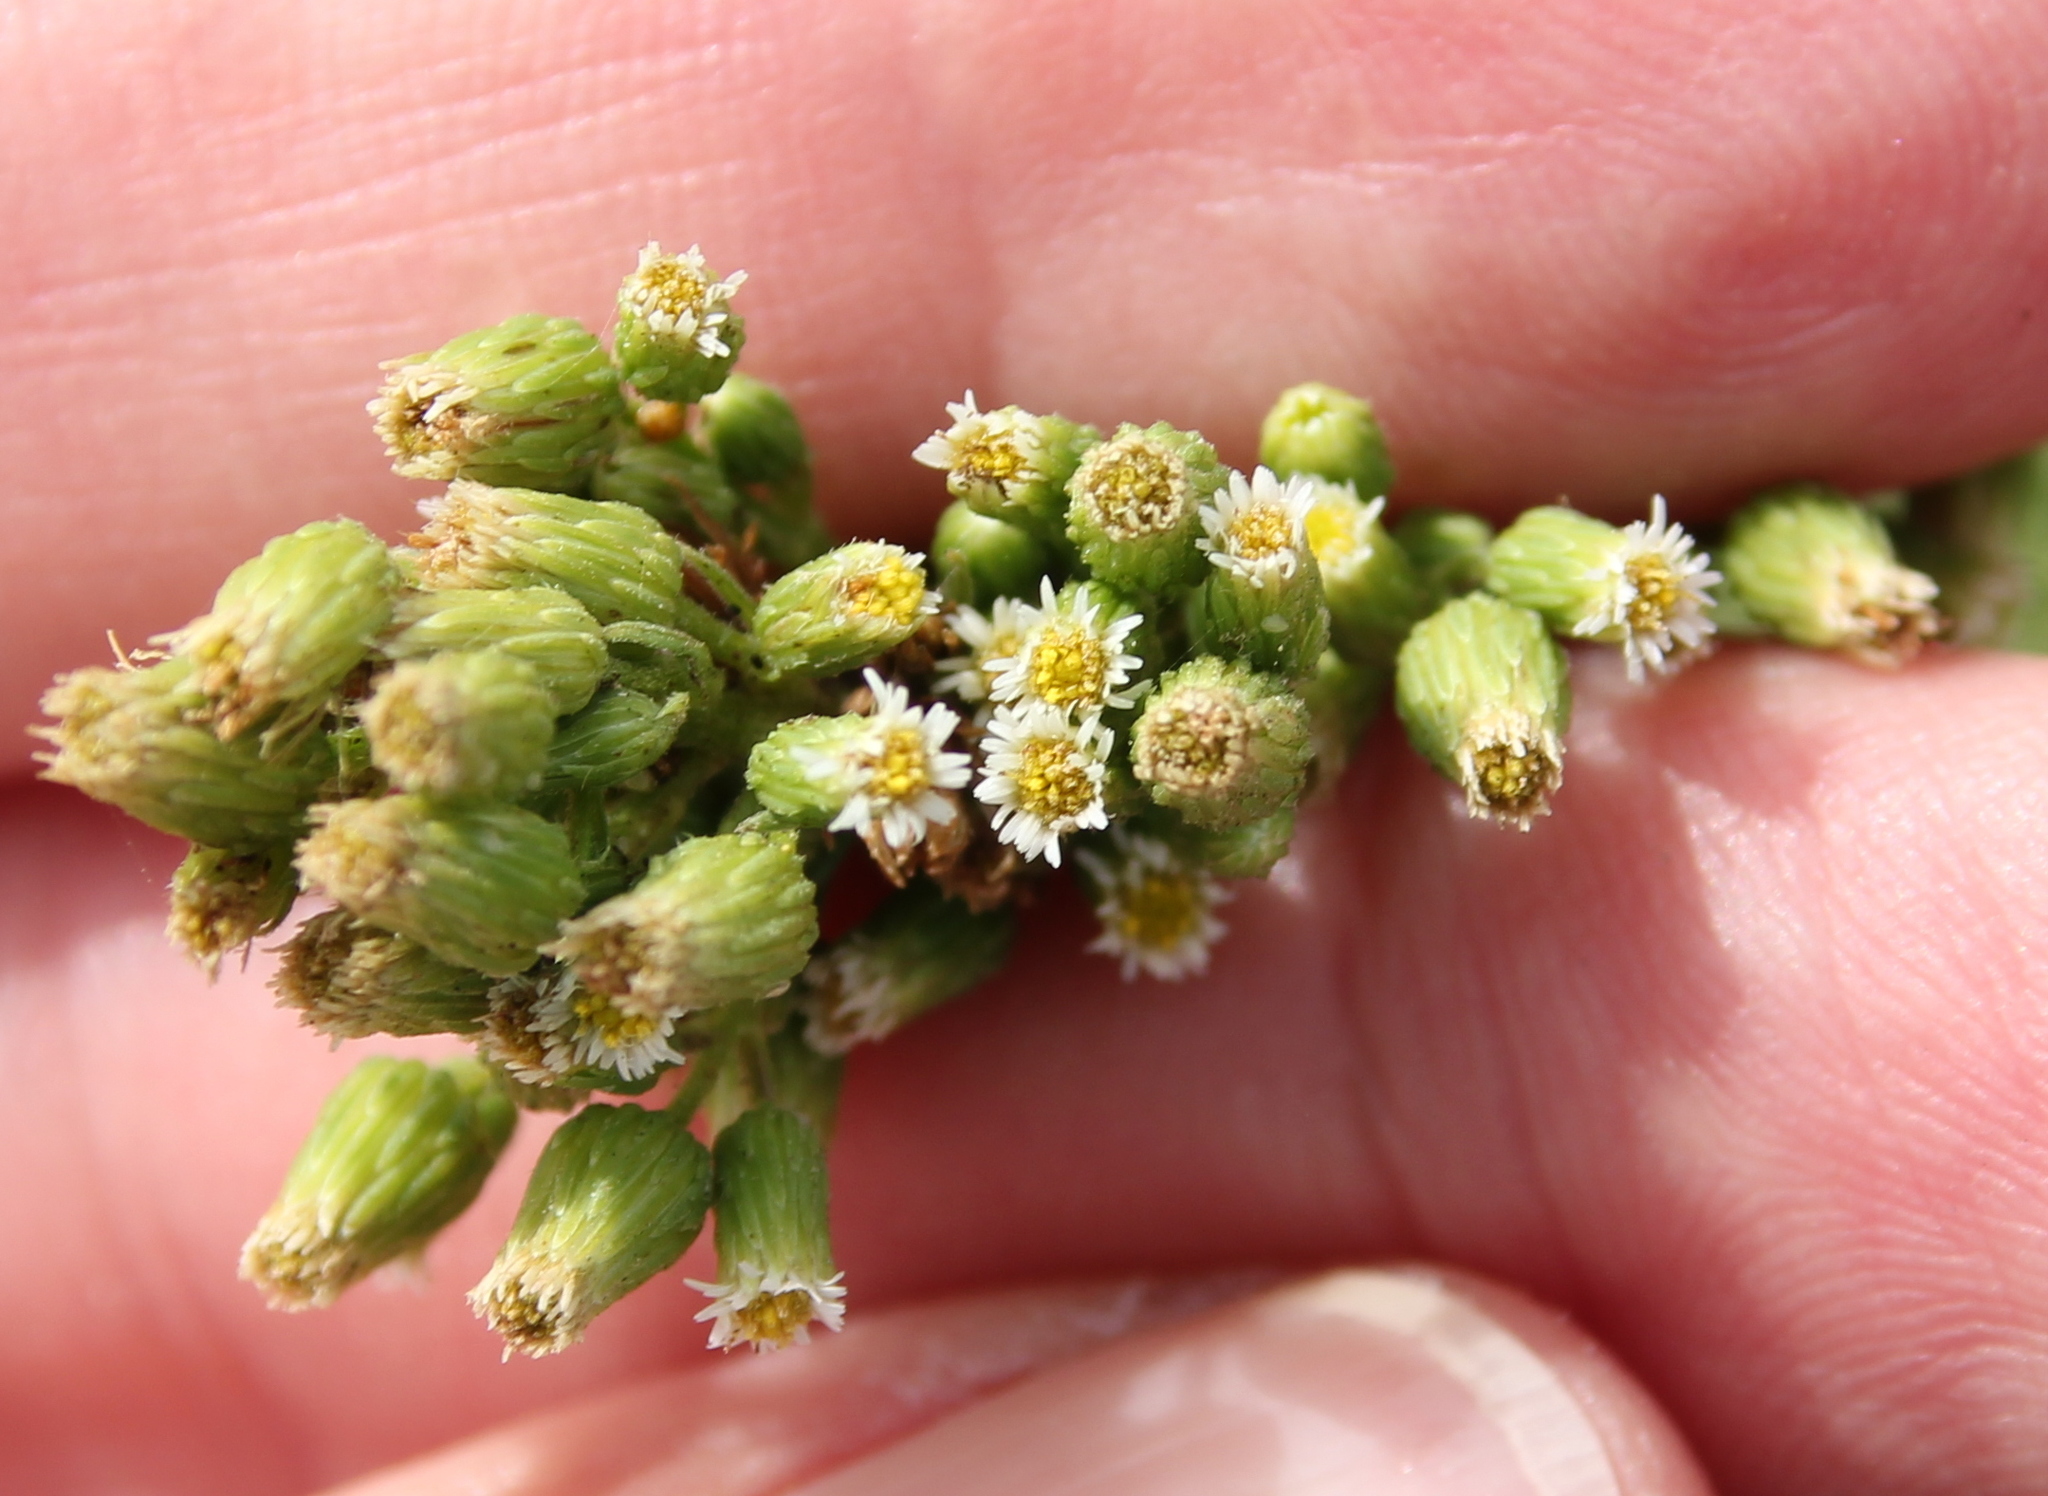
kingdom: Plantae
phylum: Tracheophyta
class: Magnoliopsida
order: Asterales
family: Asteraceae
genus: Erigeron
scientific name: Erigeron canadensis
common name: Canadian fleabane
